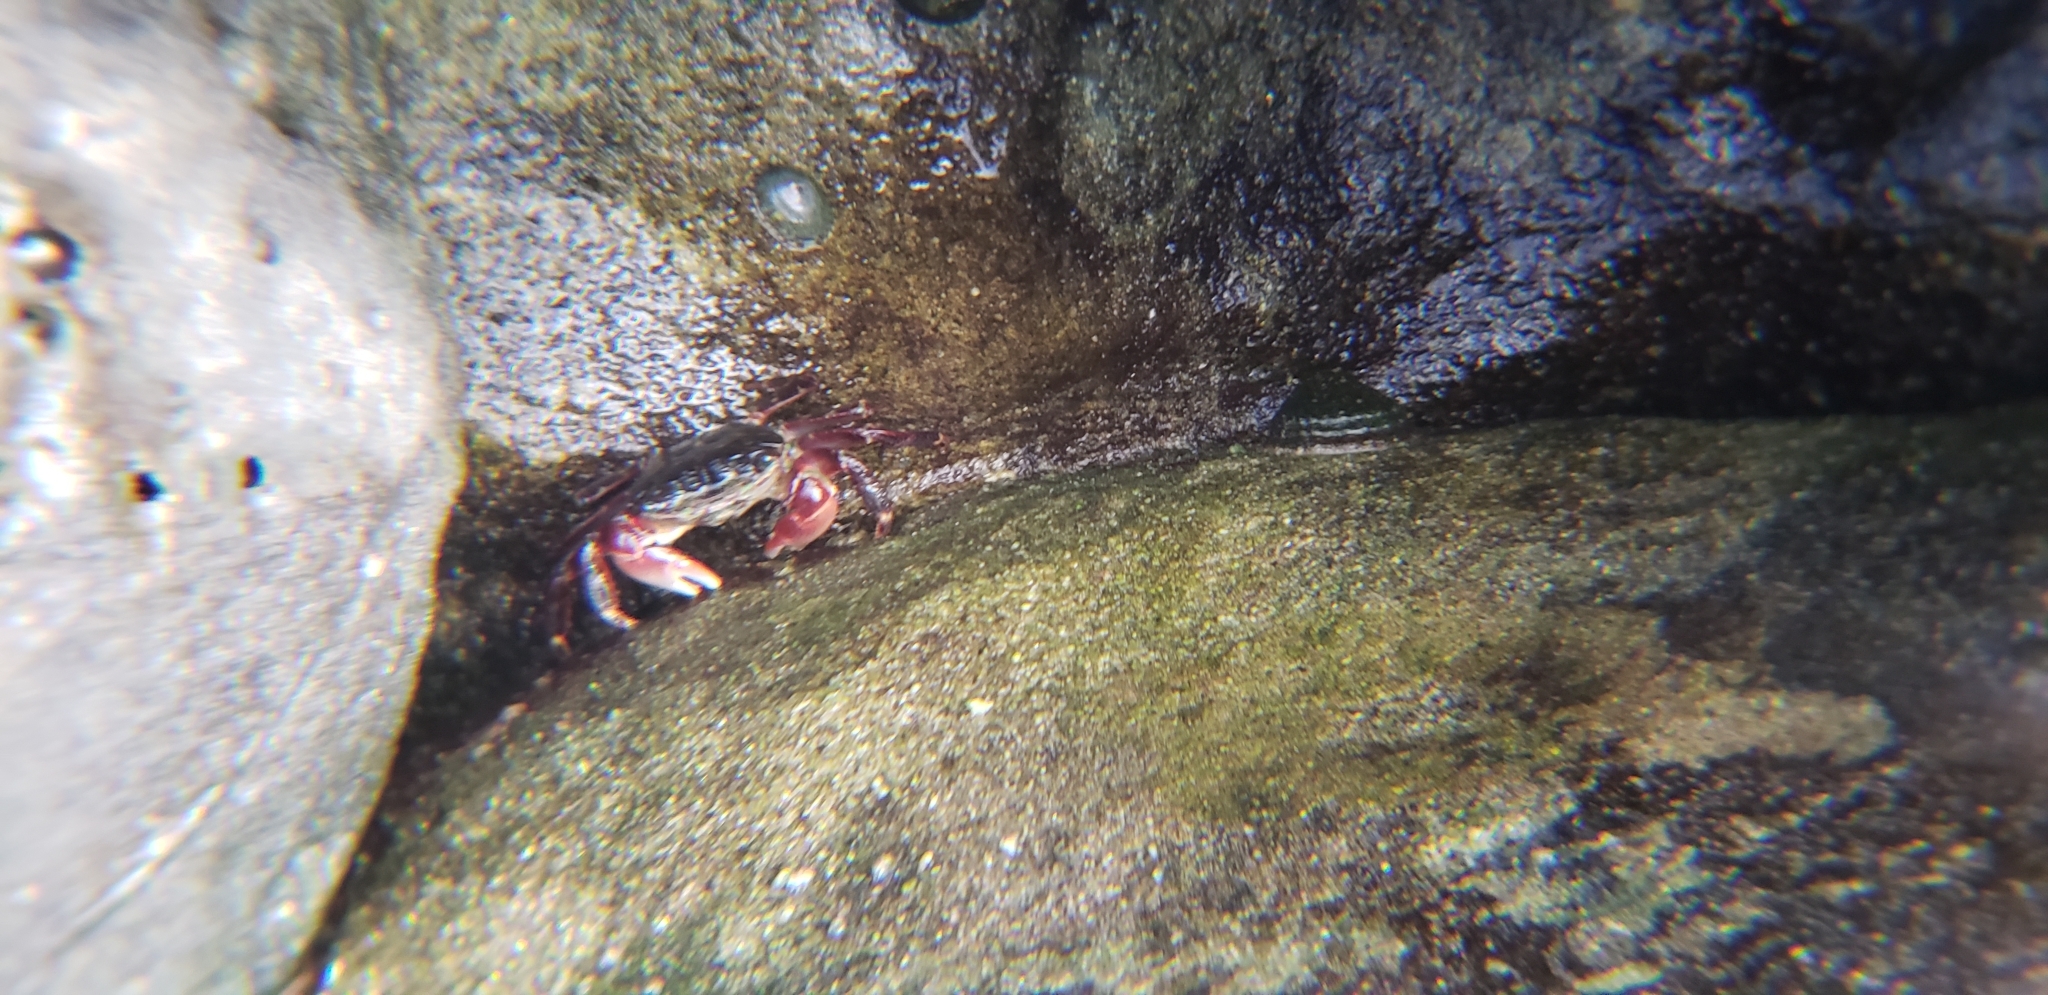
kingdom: Animalia
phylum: Arthropoda
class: Malacostraca
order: Decapoda
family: Grapsidae
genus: Pachygrapsus
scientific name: Pachygrapsus crassipes
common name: Striped shore crab
